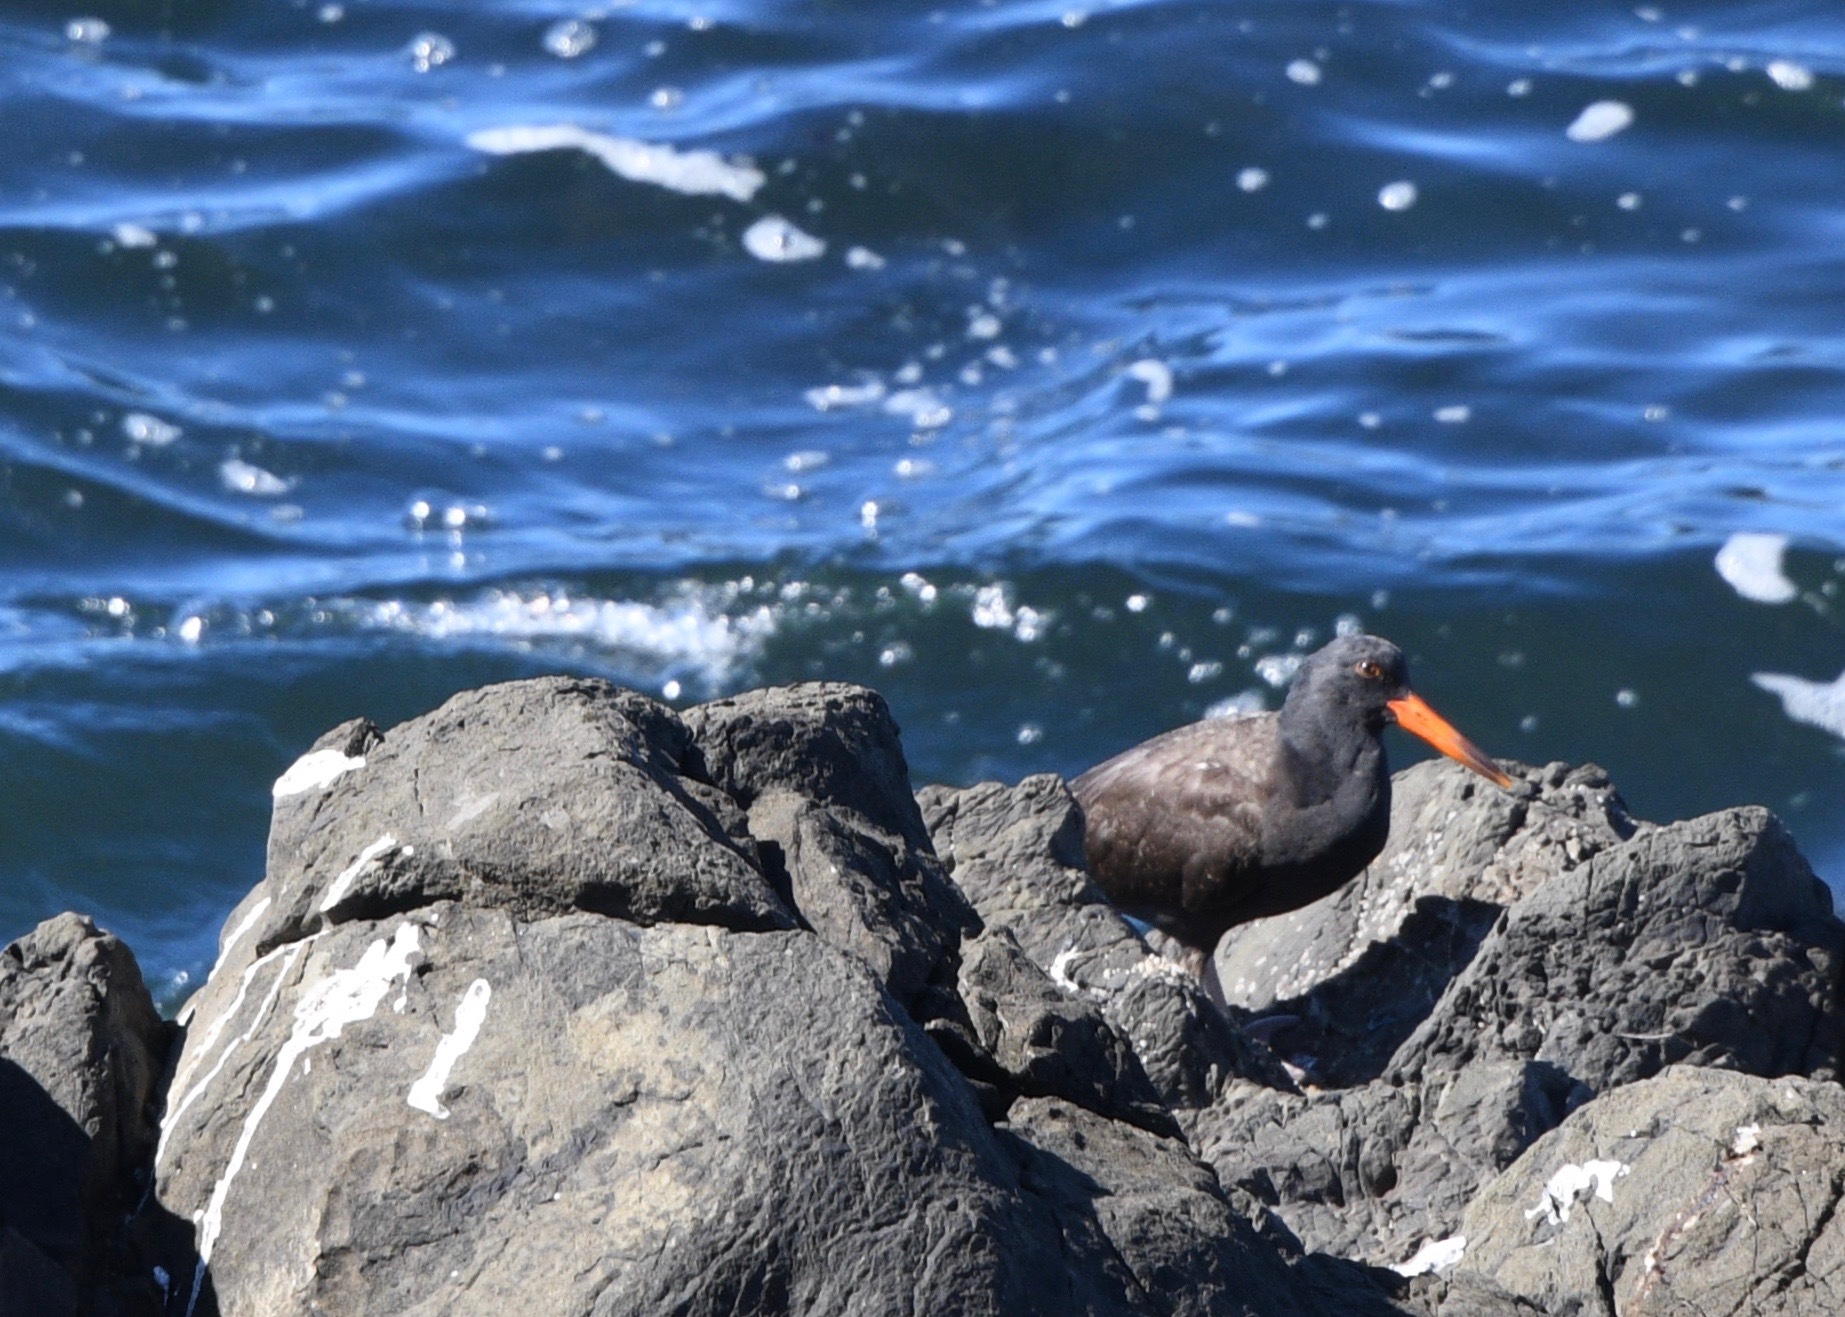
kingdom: Animalia
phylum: Chordata
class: Aves
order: Charadriiformes
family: Haematopodidae
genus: Haematopus
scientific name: Haematopus bachmani
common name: Black oystercatcher
